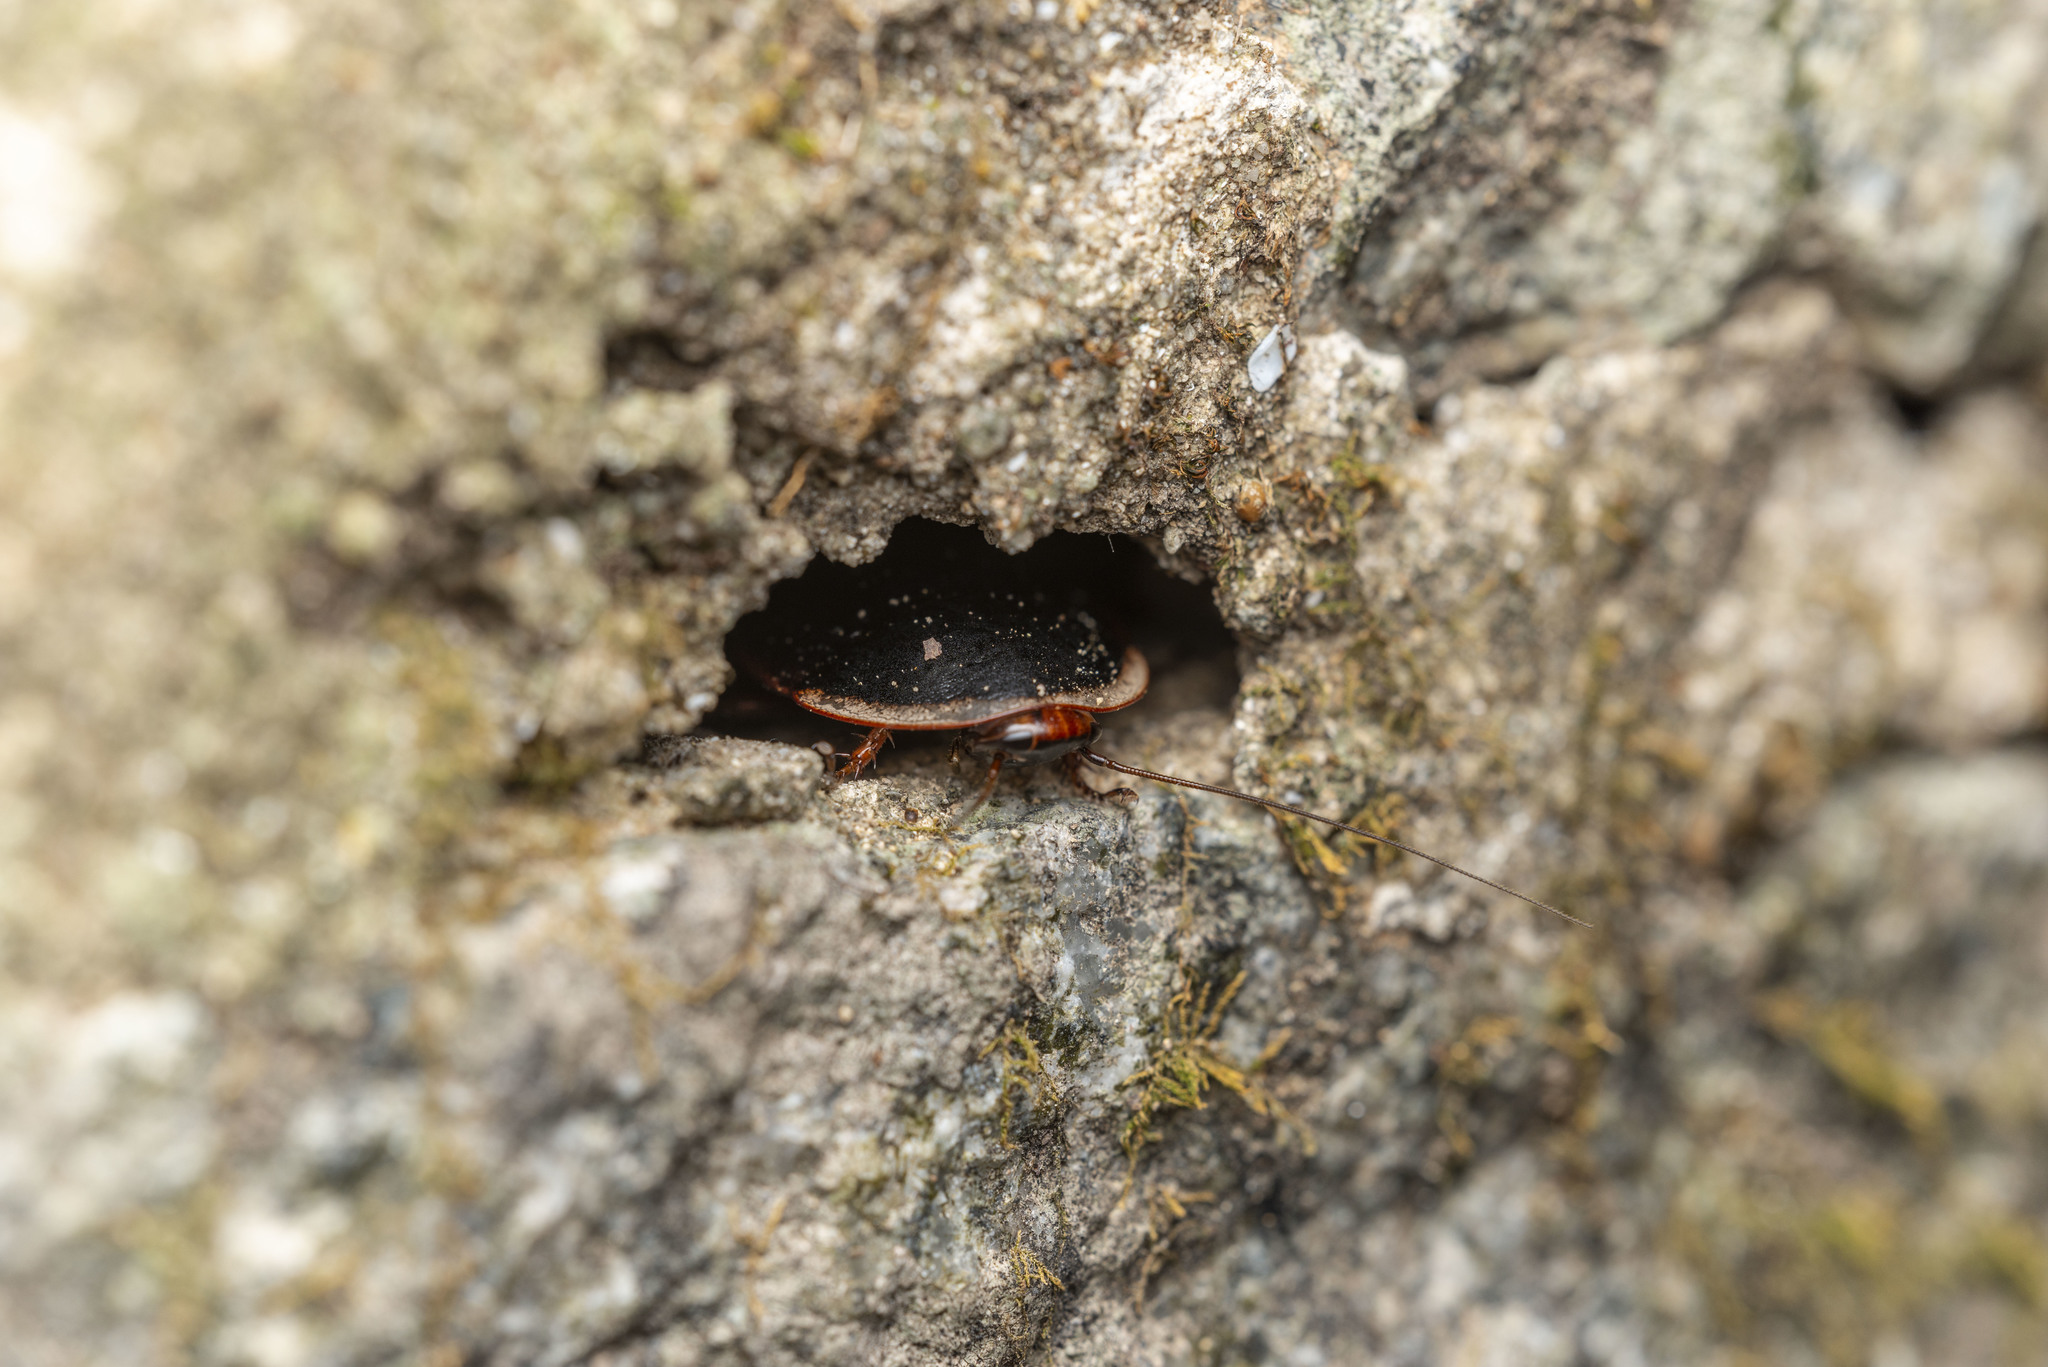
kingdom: Animalia
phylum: Arthropoda
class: Insecta
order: Blattodea
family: Blaberidae
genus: Opisthoplatia
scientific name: Opisthoplatia orientalis
